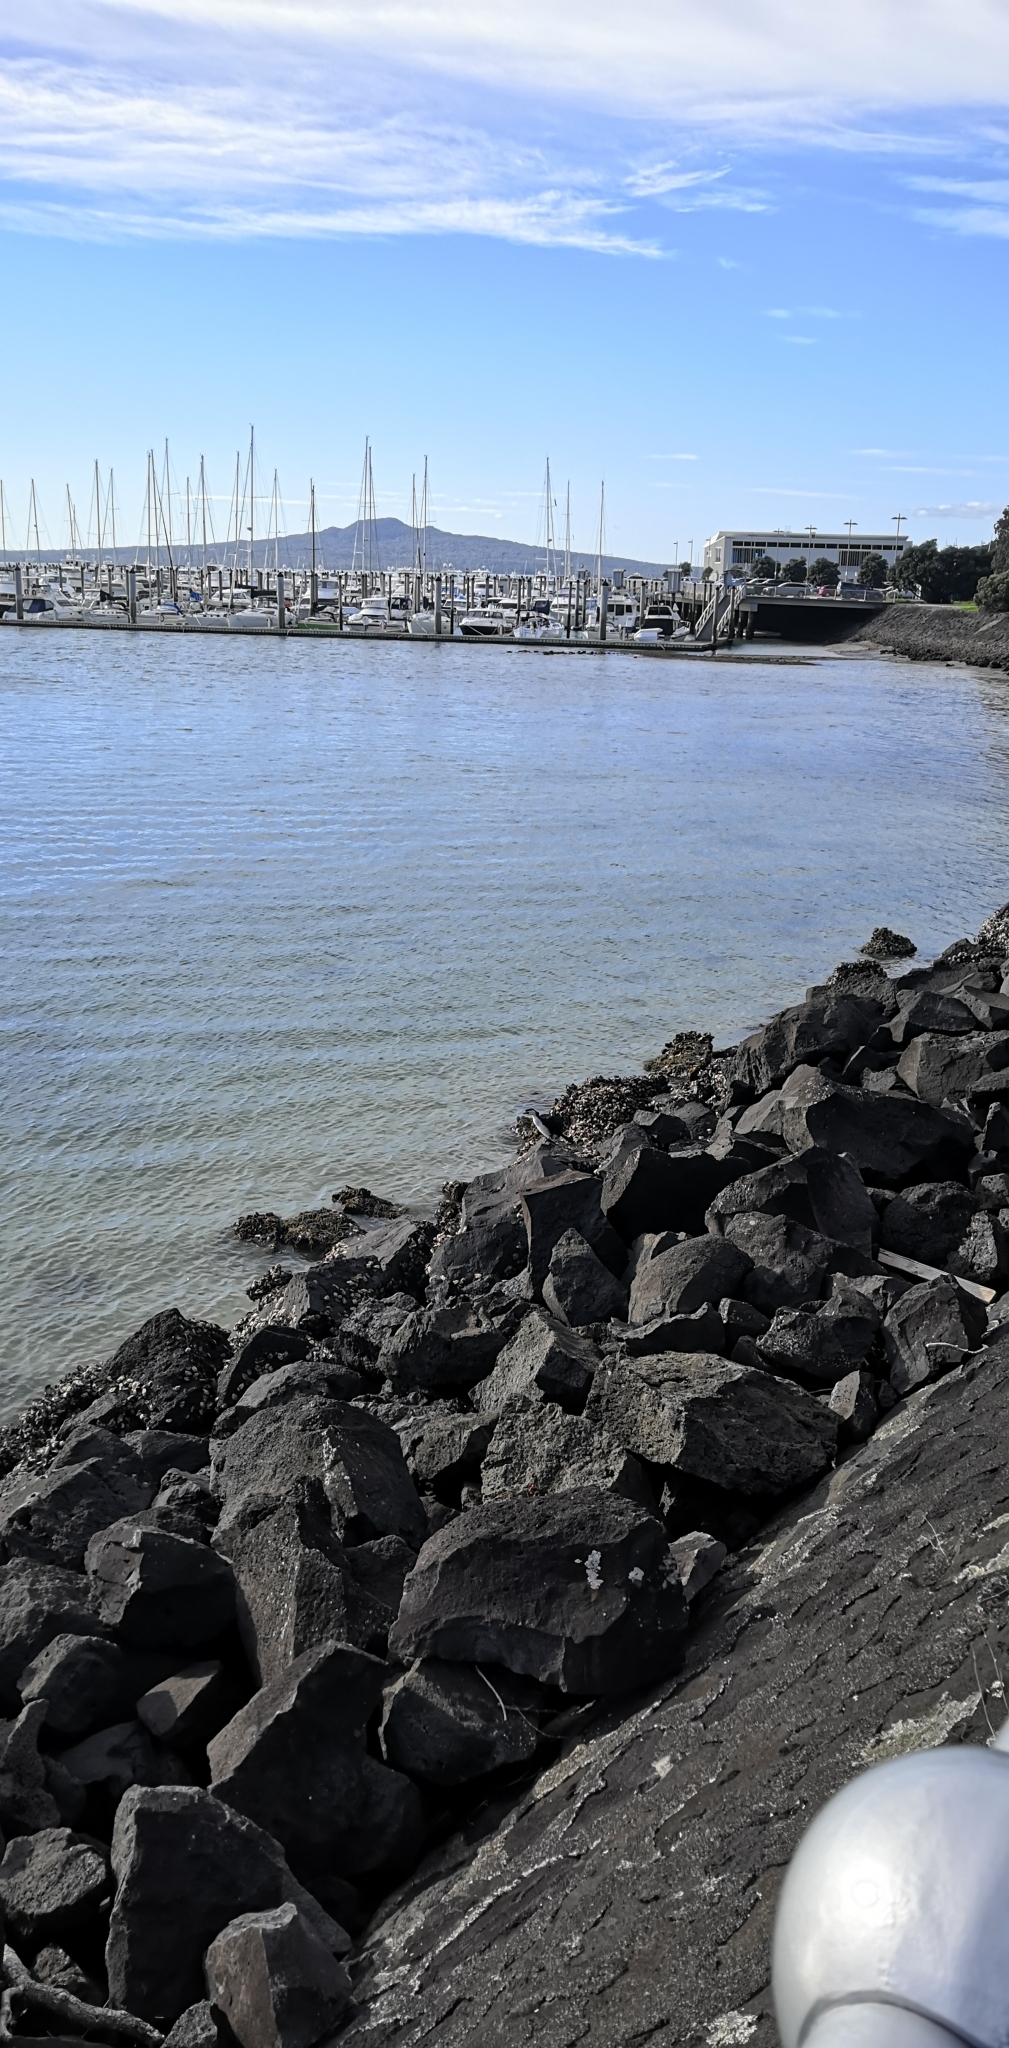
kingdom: Animalia
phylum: Chordata
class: Aves
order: Suliformes
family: Phalacrocoracidae
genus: Microcarbo
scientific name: Microcarbo melanoleucos
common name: Little pied cormorant
